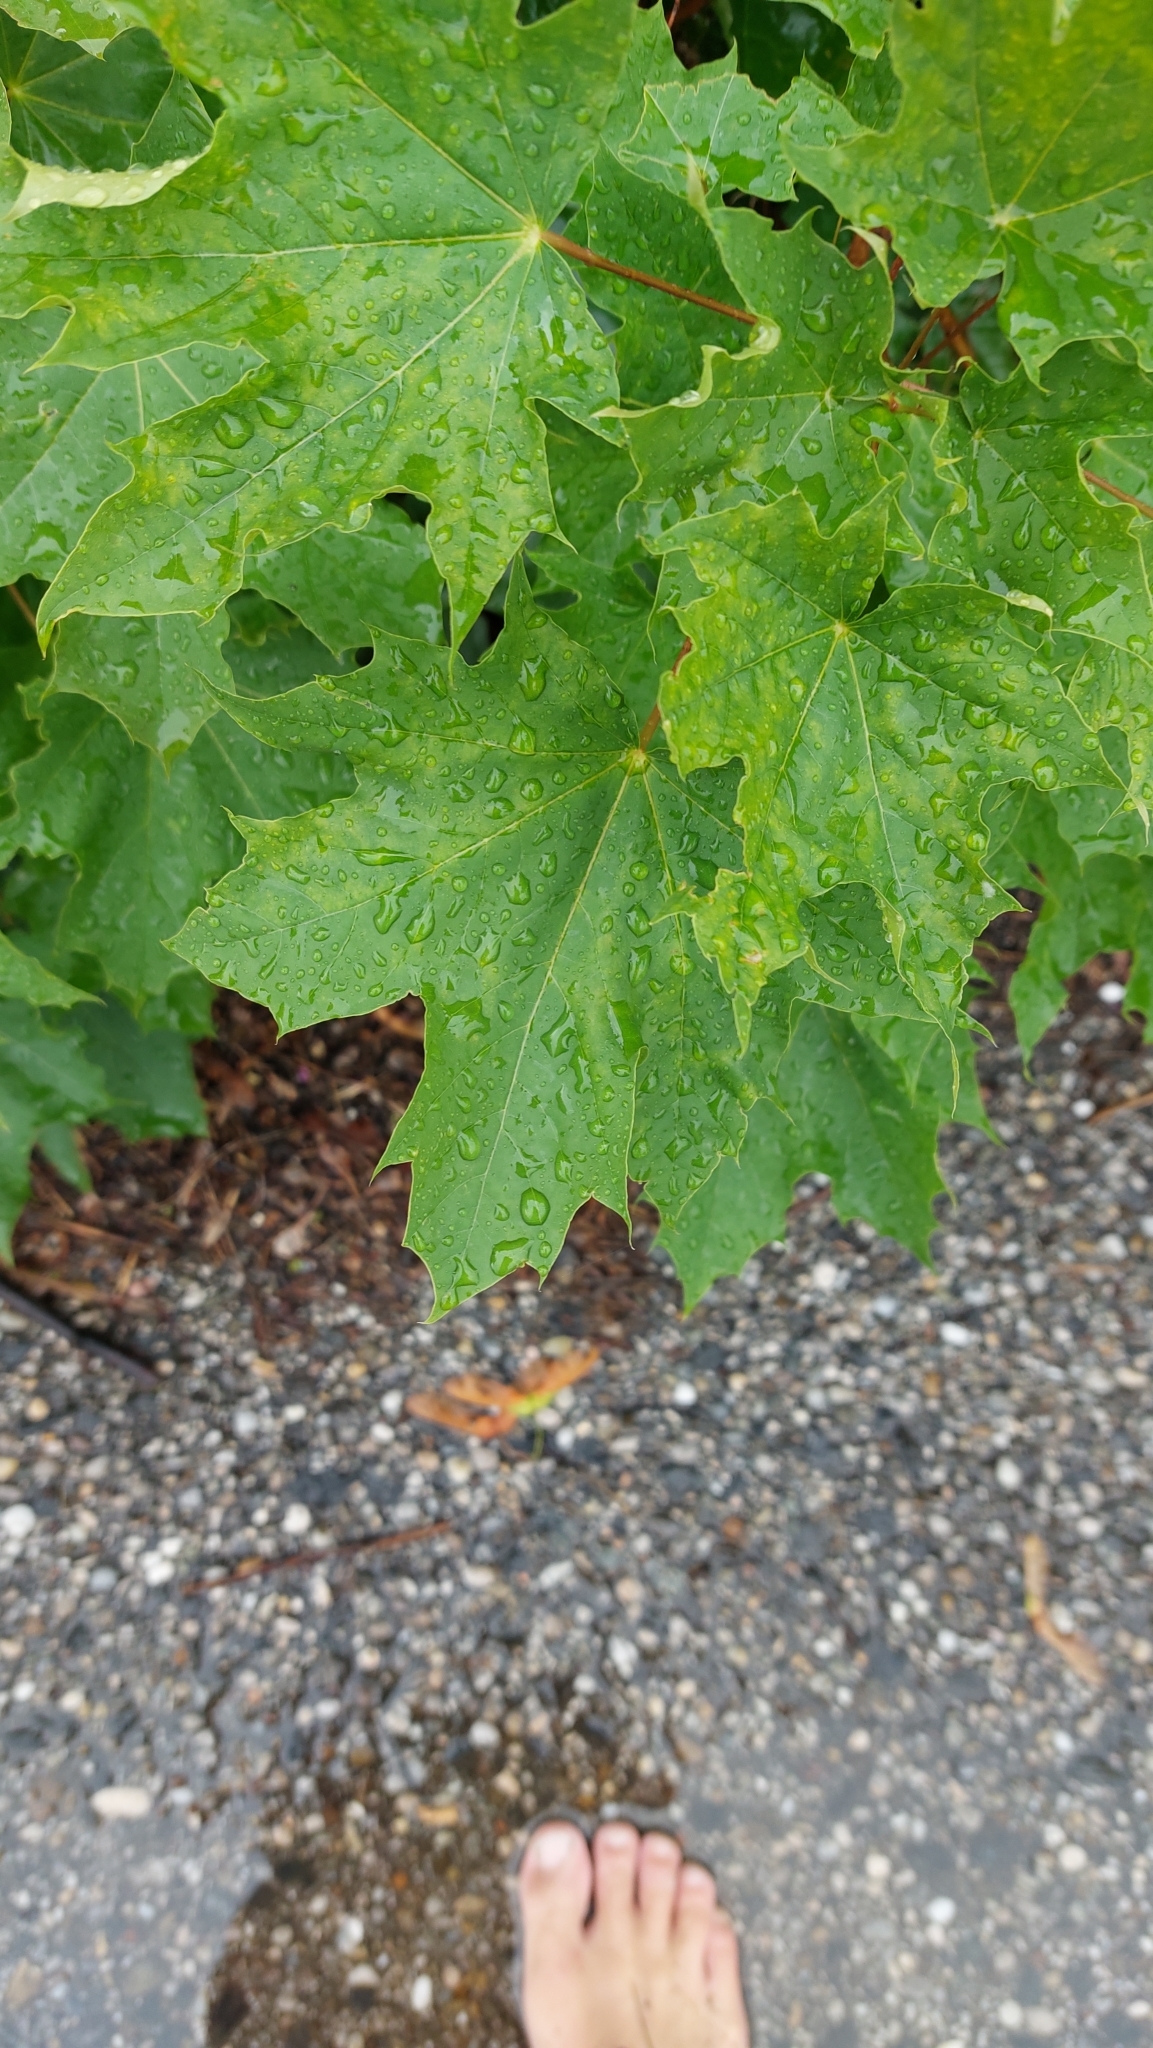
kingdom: Plantae
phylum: Tracheophyta
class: Magnoliopsida
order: Sapindales
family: Sapindaceae
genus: Acer
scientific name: Acer platanoides
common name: Norway maple
